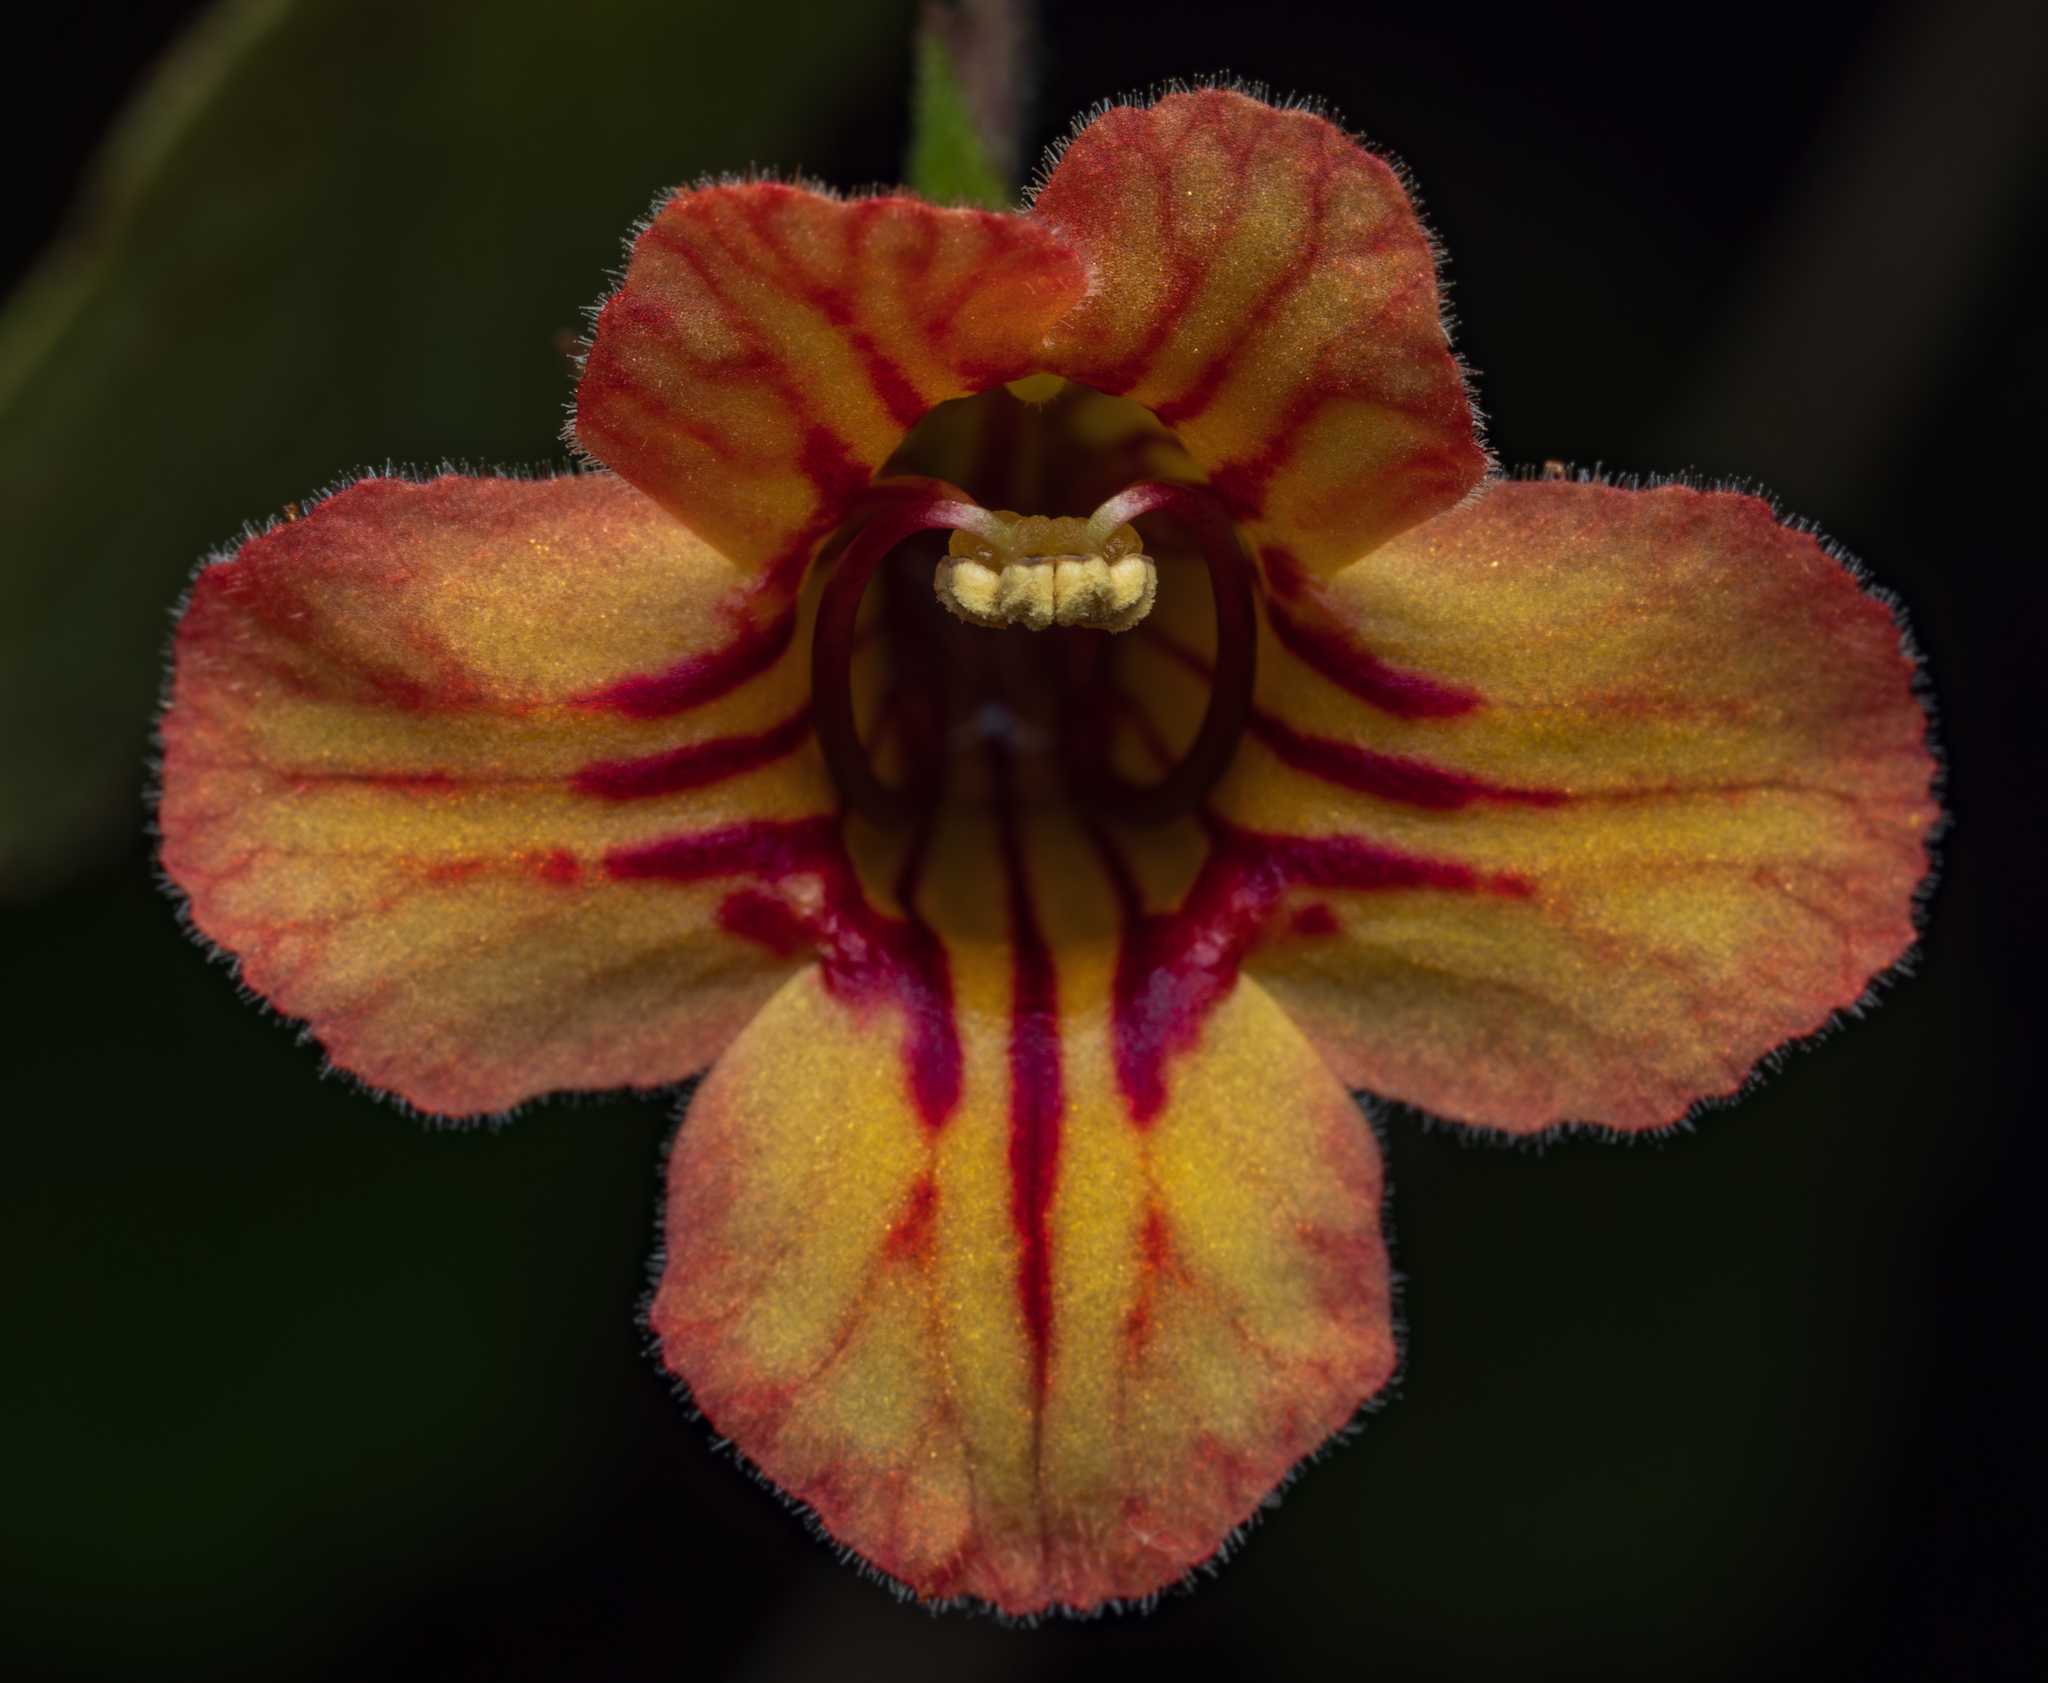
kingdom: Plantae
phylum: Tracheophyta
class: Magnoliopsida
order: Lamiales
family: Gesneriaceae
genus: Rhabdothamnus
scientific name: Rhabdothamnus solandri
